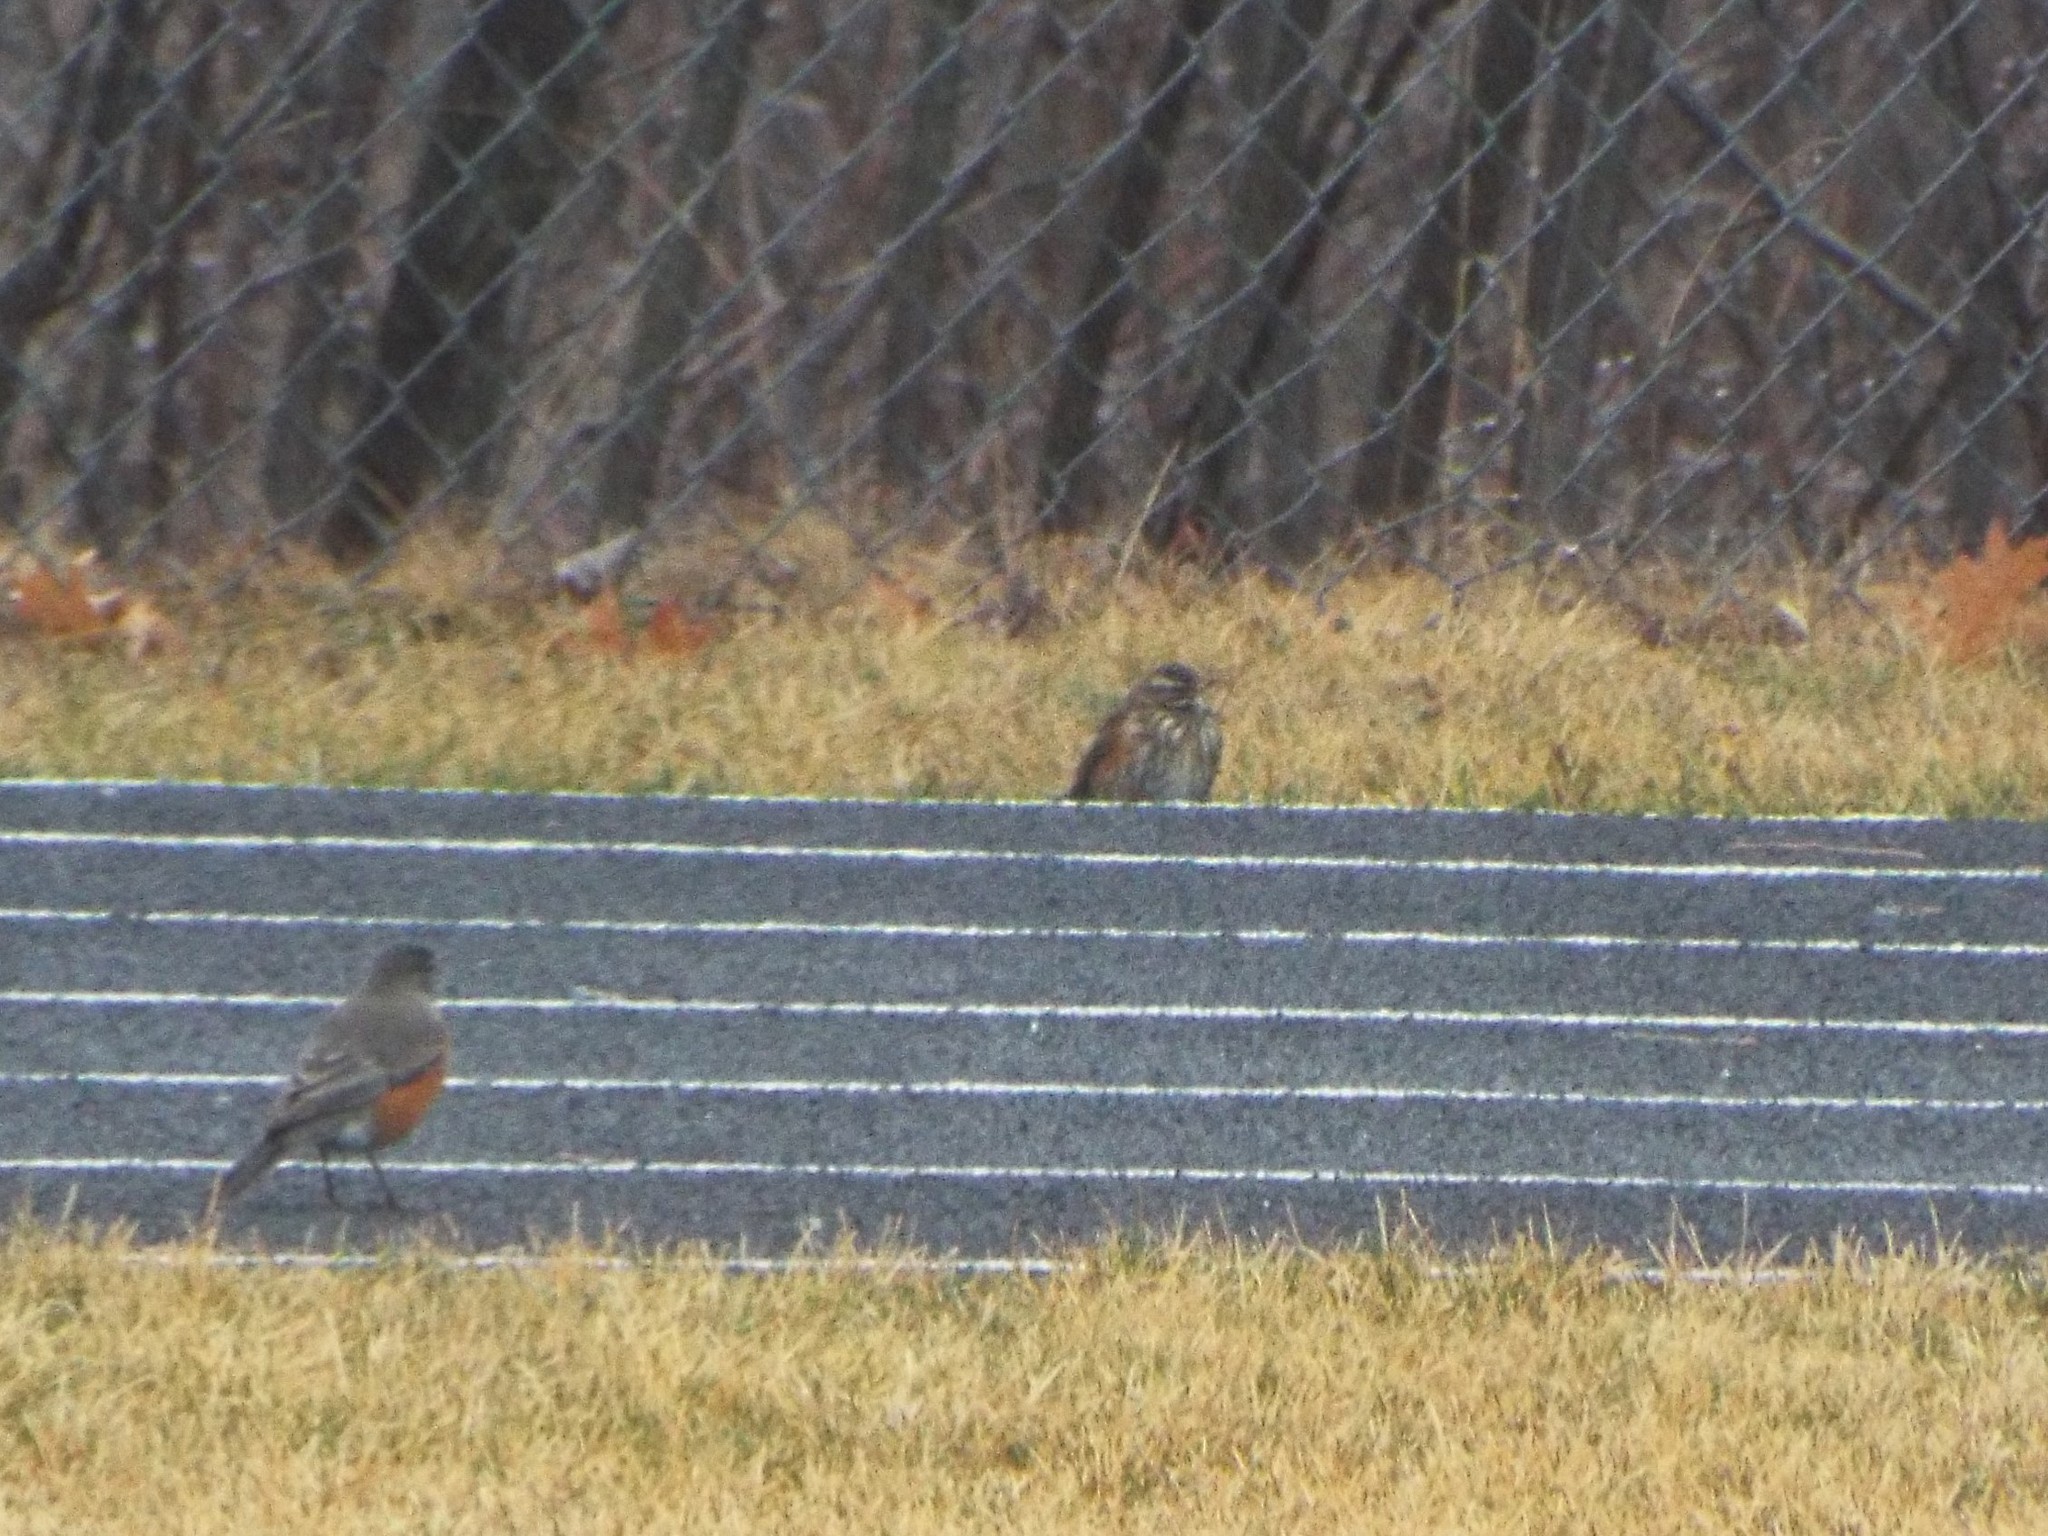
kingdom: Animalia
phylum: Chordata
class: Aves
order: Passeriformes
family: Turdidae
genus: Turdus
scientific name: Turdus iliacus
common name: Redwing
